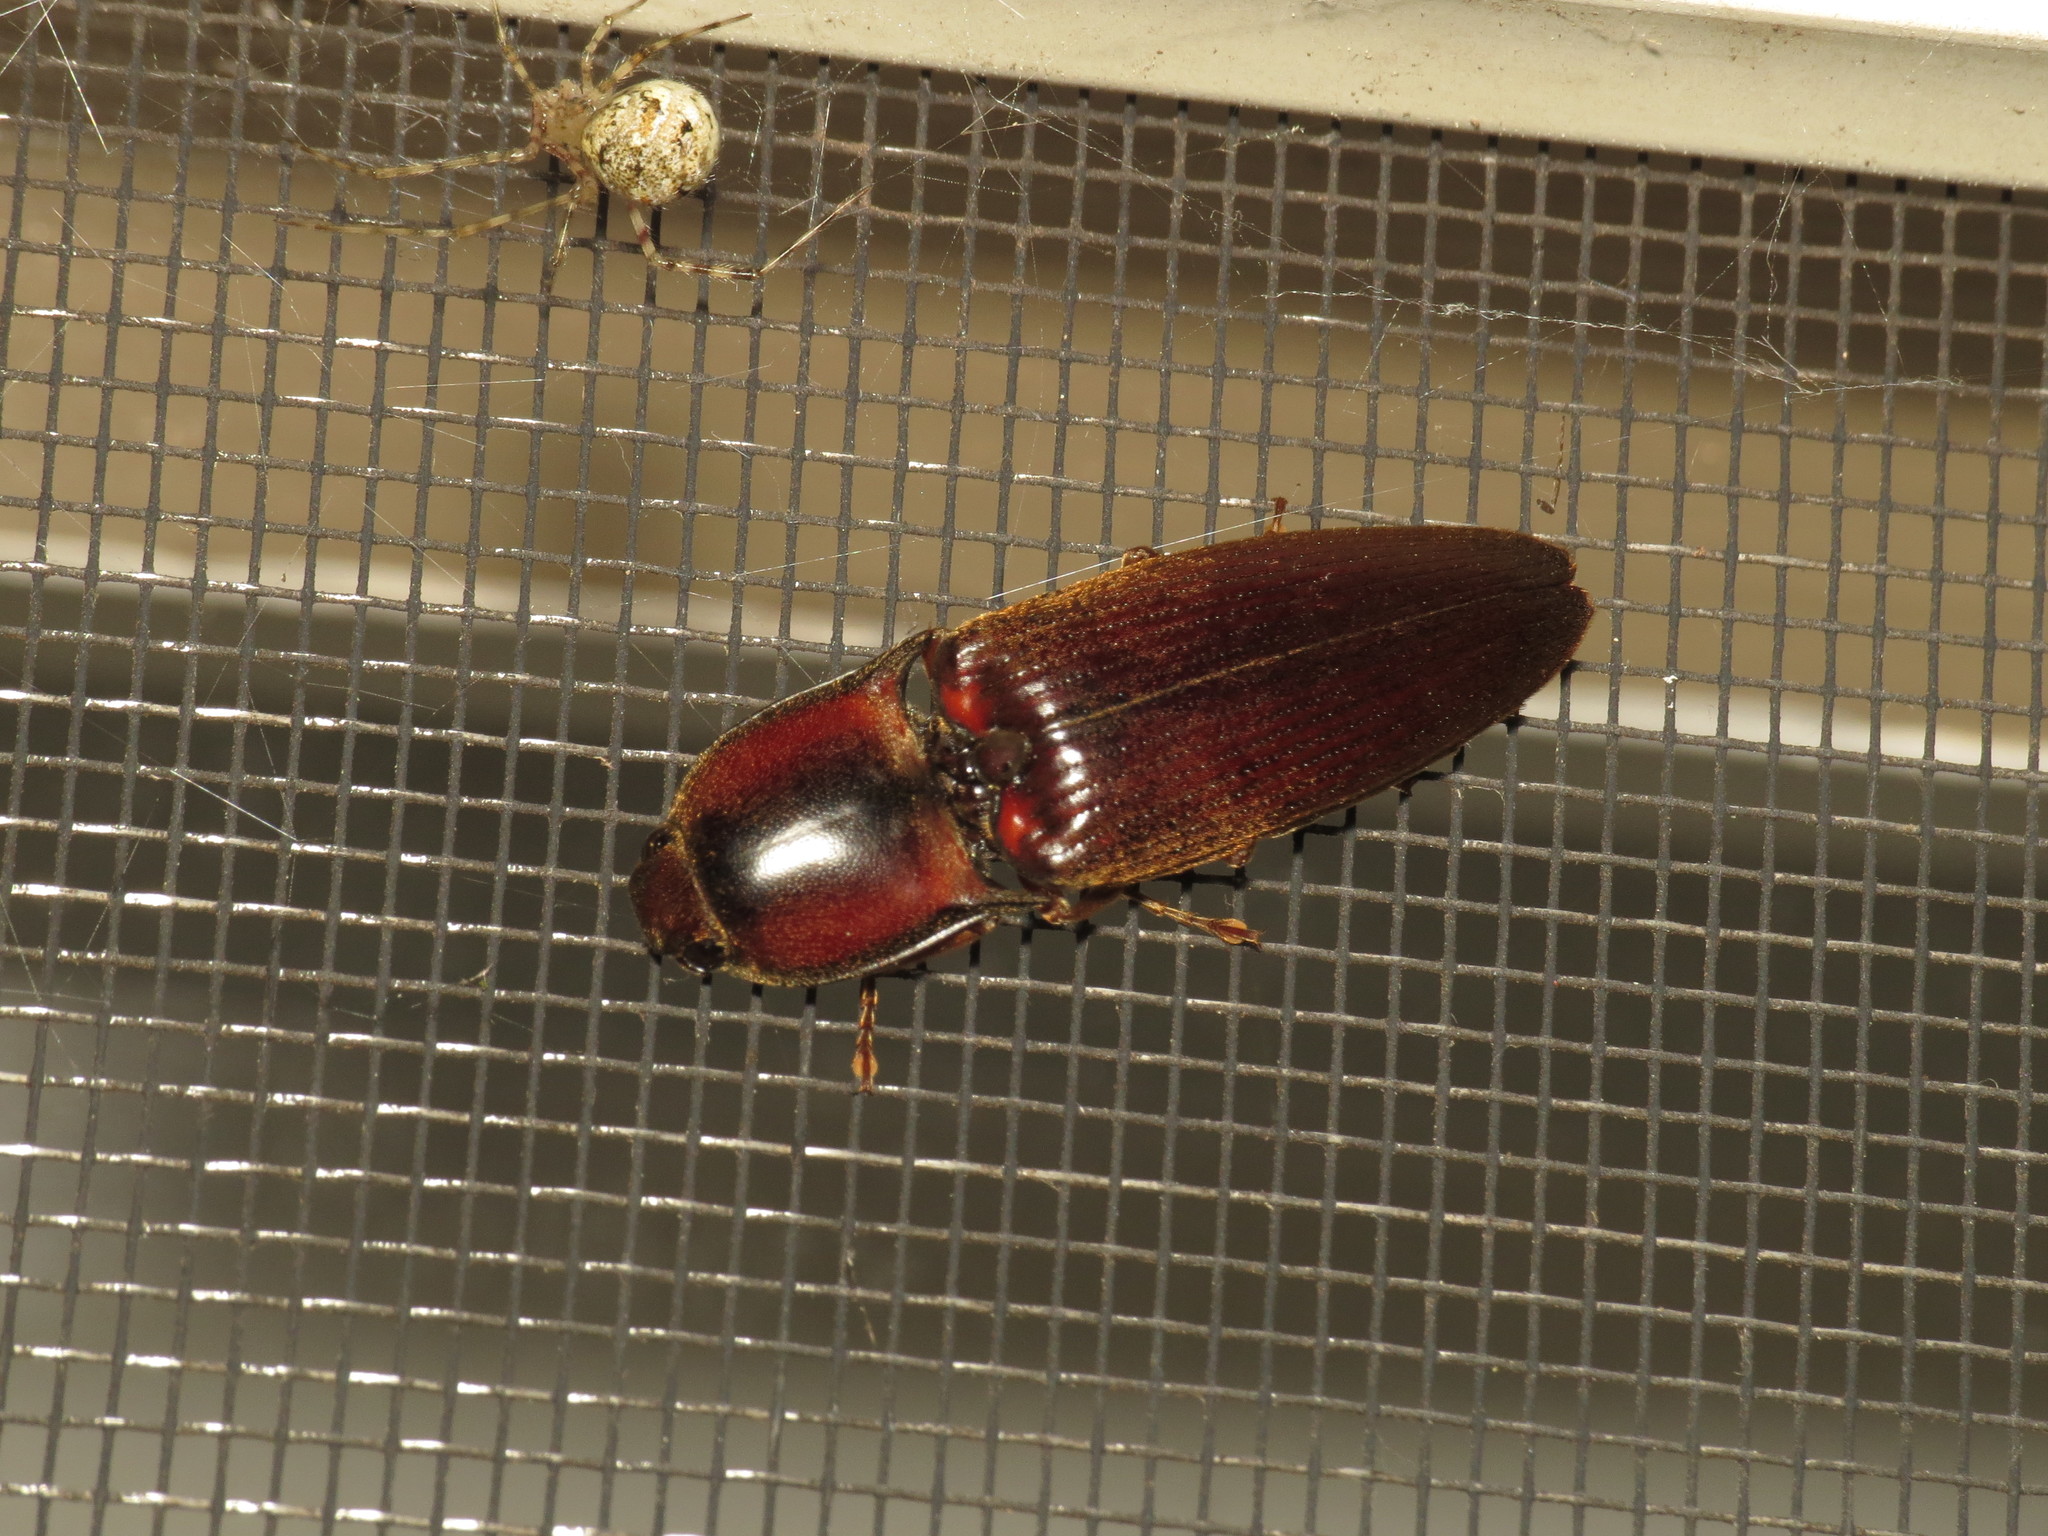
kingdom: Animalia
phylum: Arthropoda
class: Insecta
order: Coleoptera
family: Elateridae
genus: Monocrepidius
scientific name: Monocrepidius
